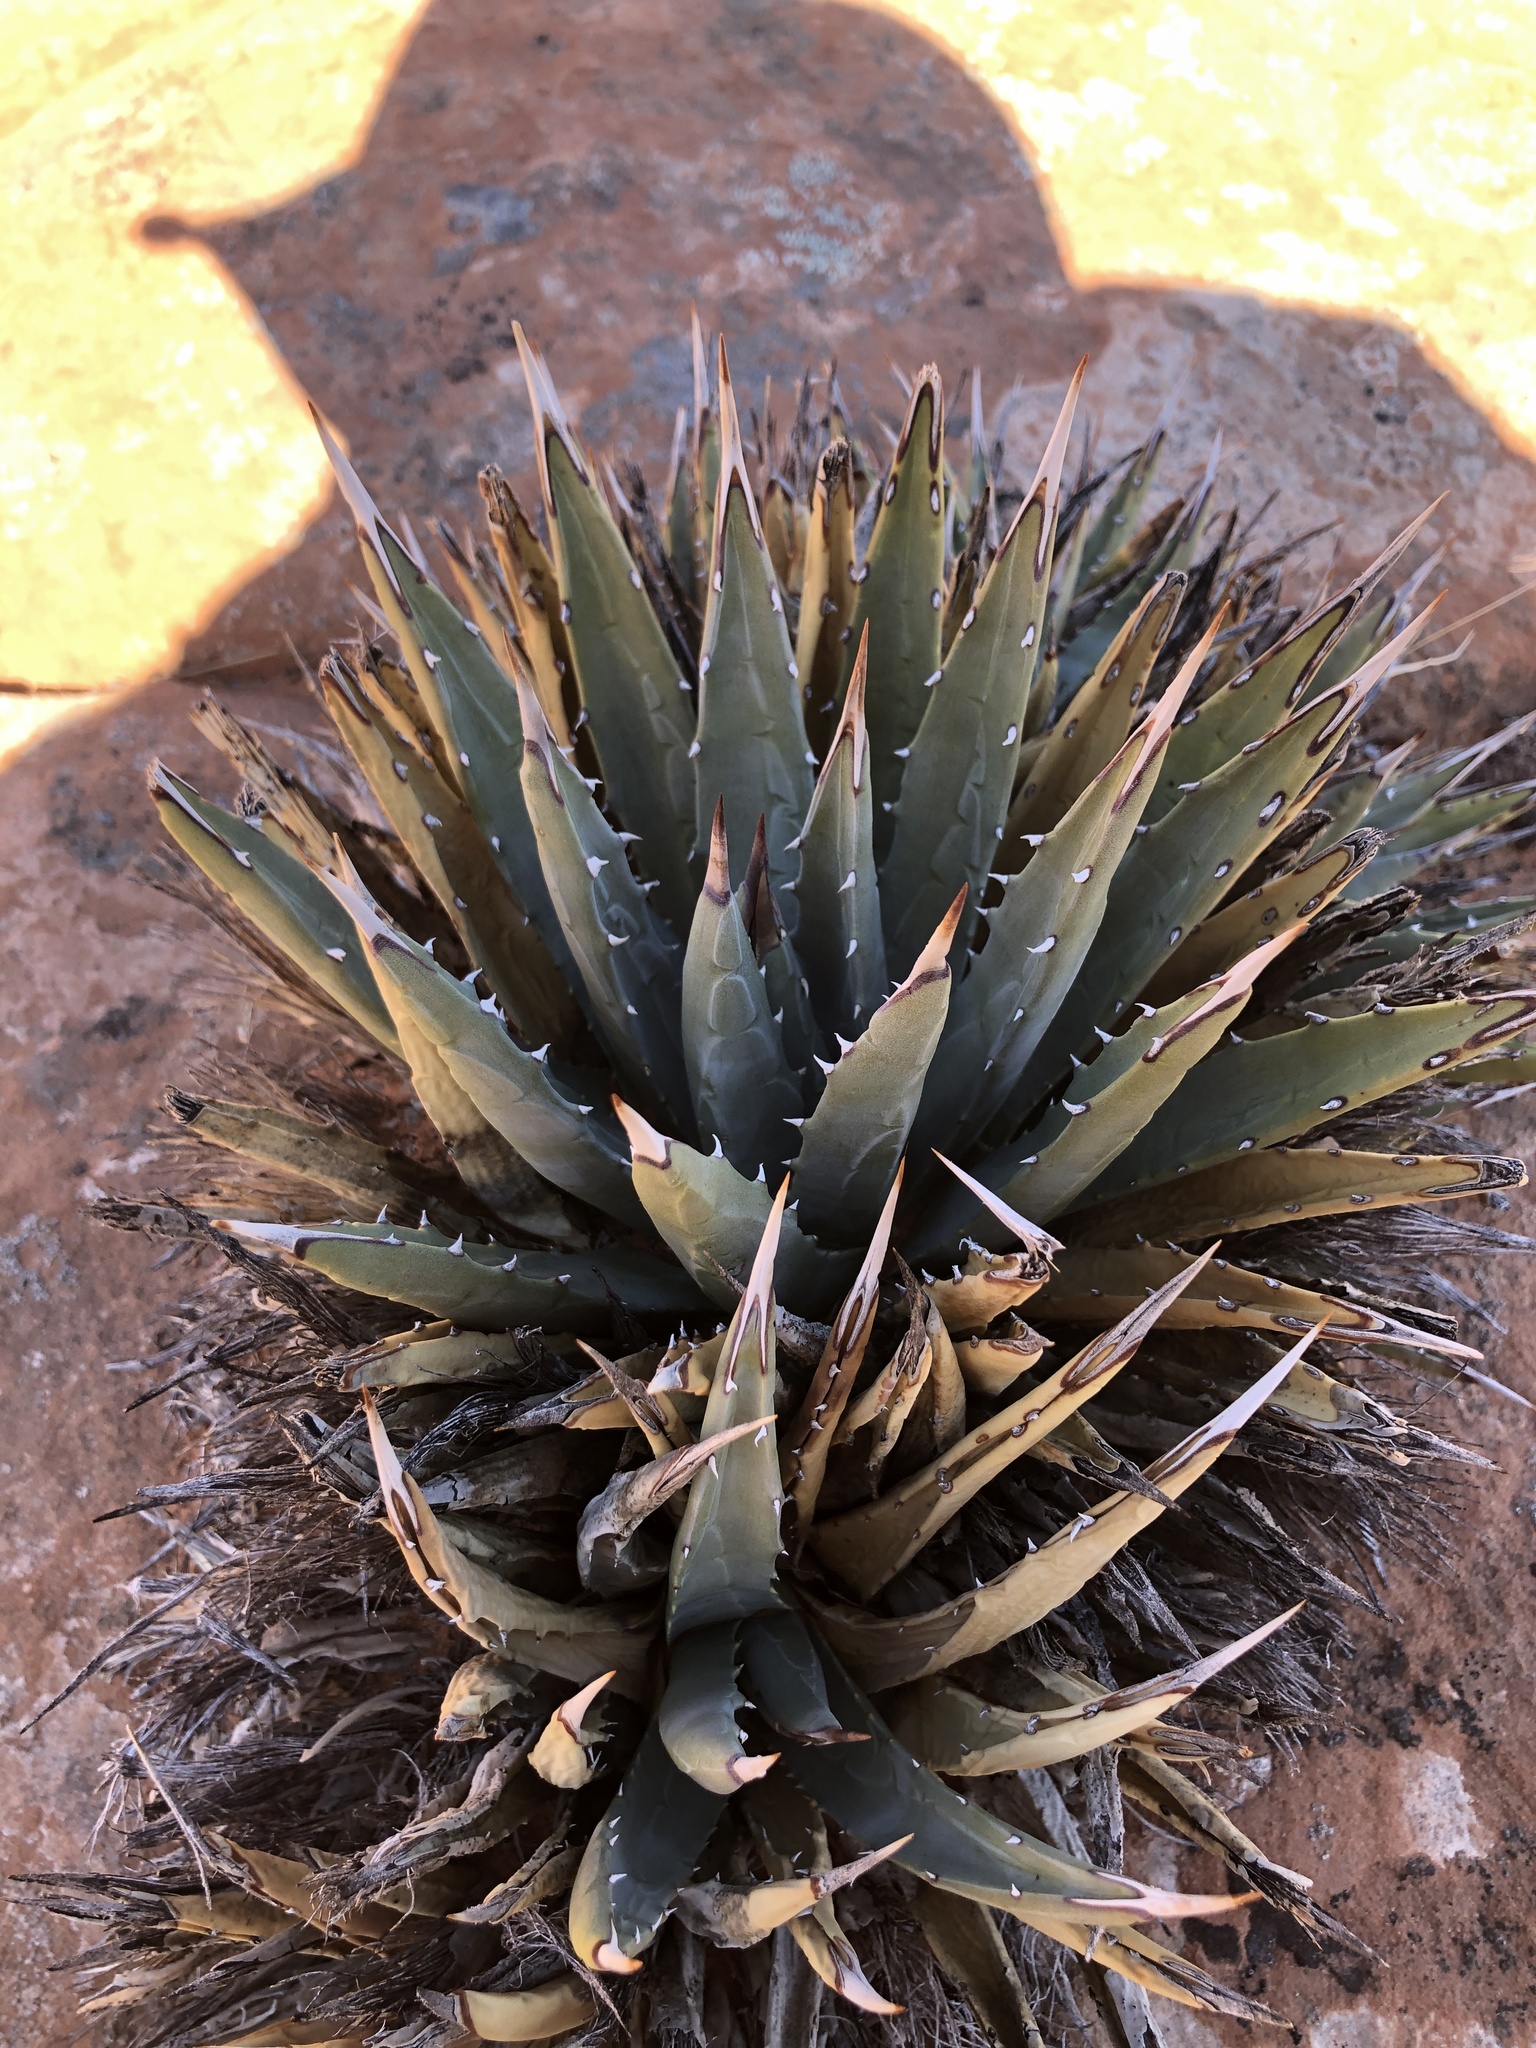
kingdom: Plantae
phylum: Tracheophyta
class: Liliopsida
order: Asparagales
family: Asparagaceae
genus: Agave
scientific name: Agave utahensis
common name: Utah agave
